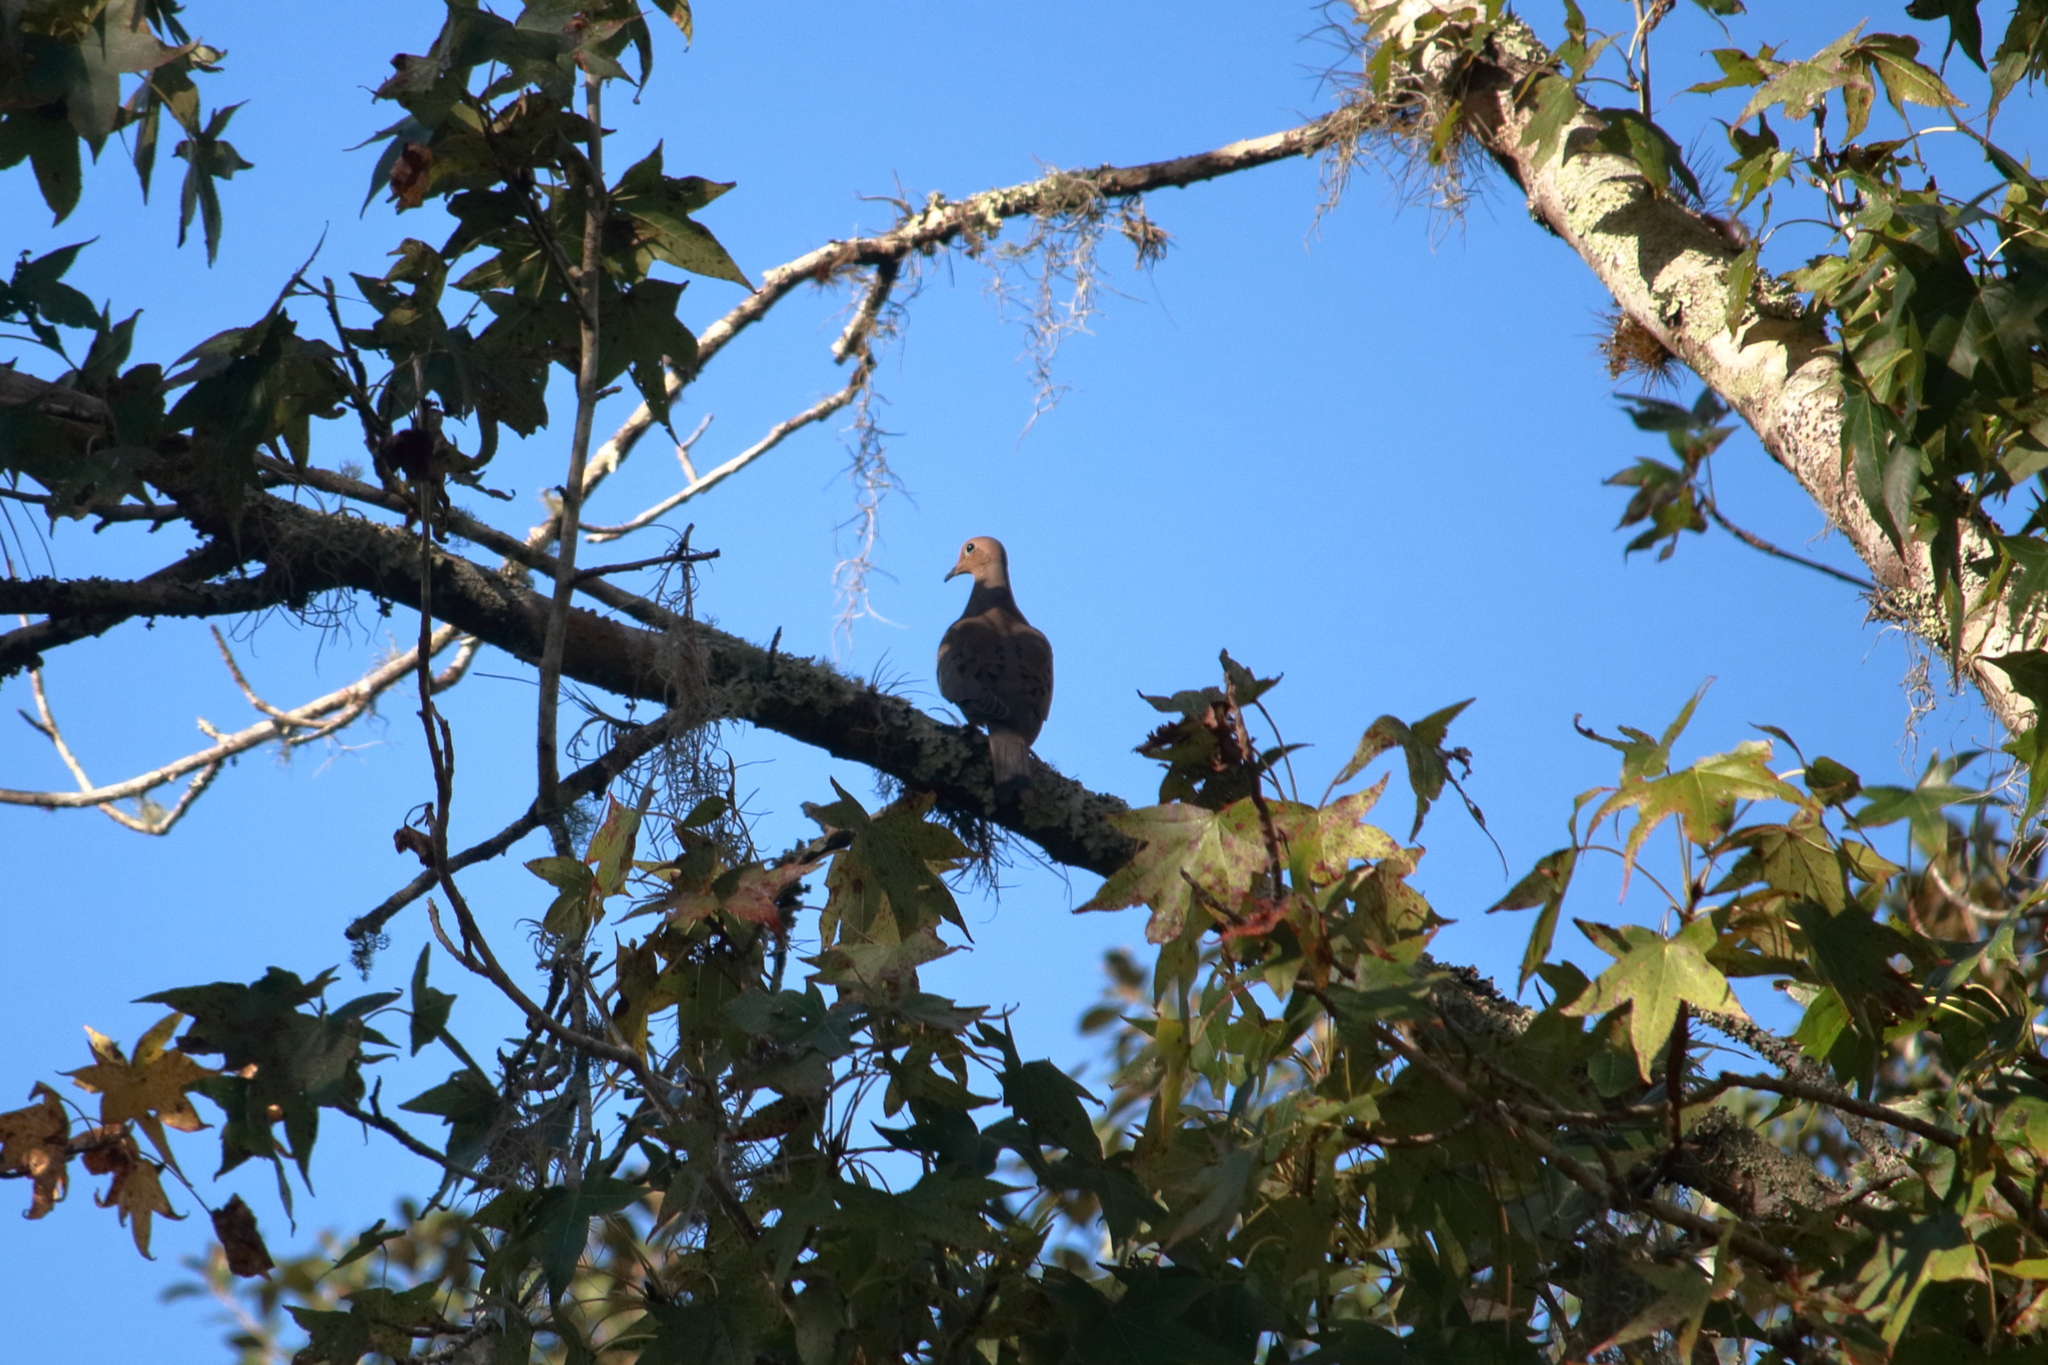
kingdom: Animalia
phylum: Chordata
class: Aves
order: Columbiformes
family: Columbidae
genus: Zenaida
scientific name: Zenaida macroura
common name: Mourning dove
